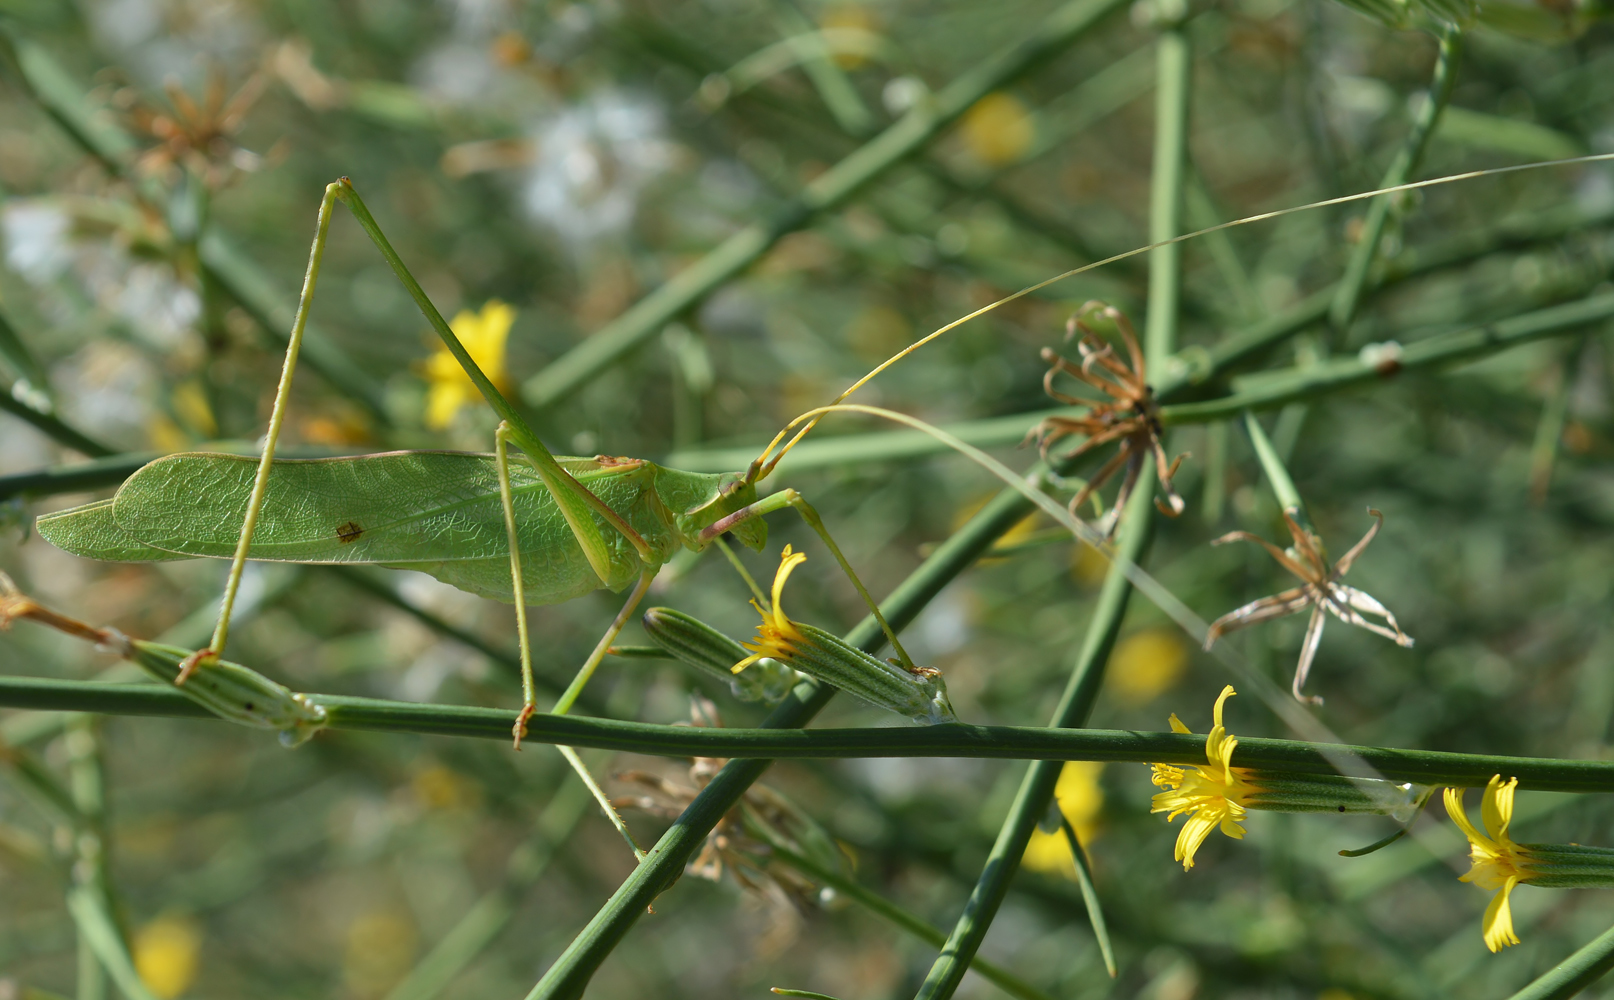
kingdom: Animalia
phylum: Arthropoda
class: Insecta
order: Orthoptera
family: Tettigoniidae
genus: Acrometopa
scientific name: Acrometopa servillea
